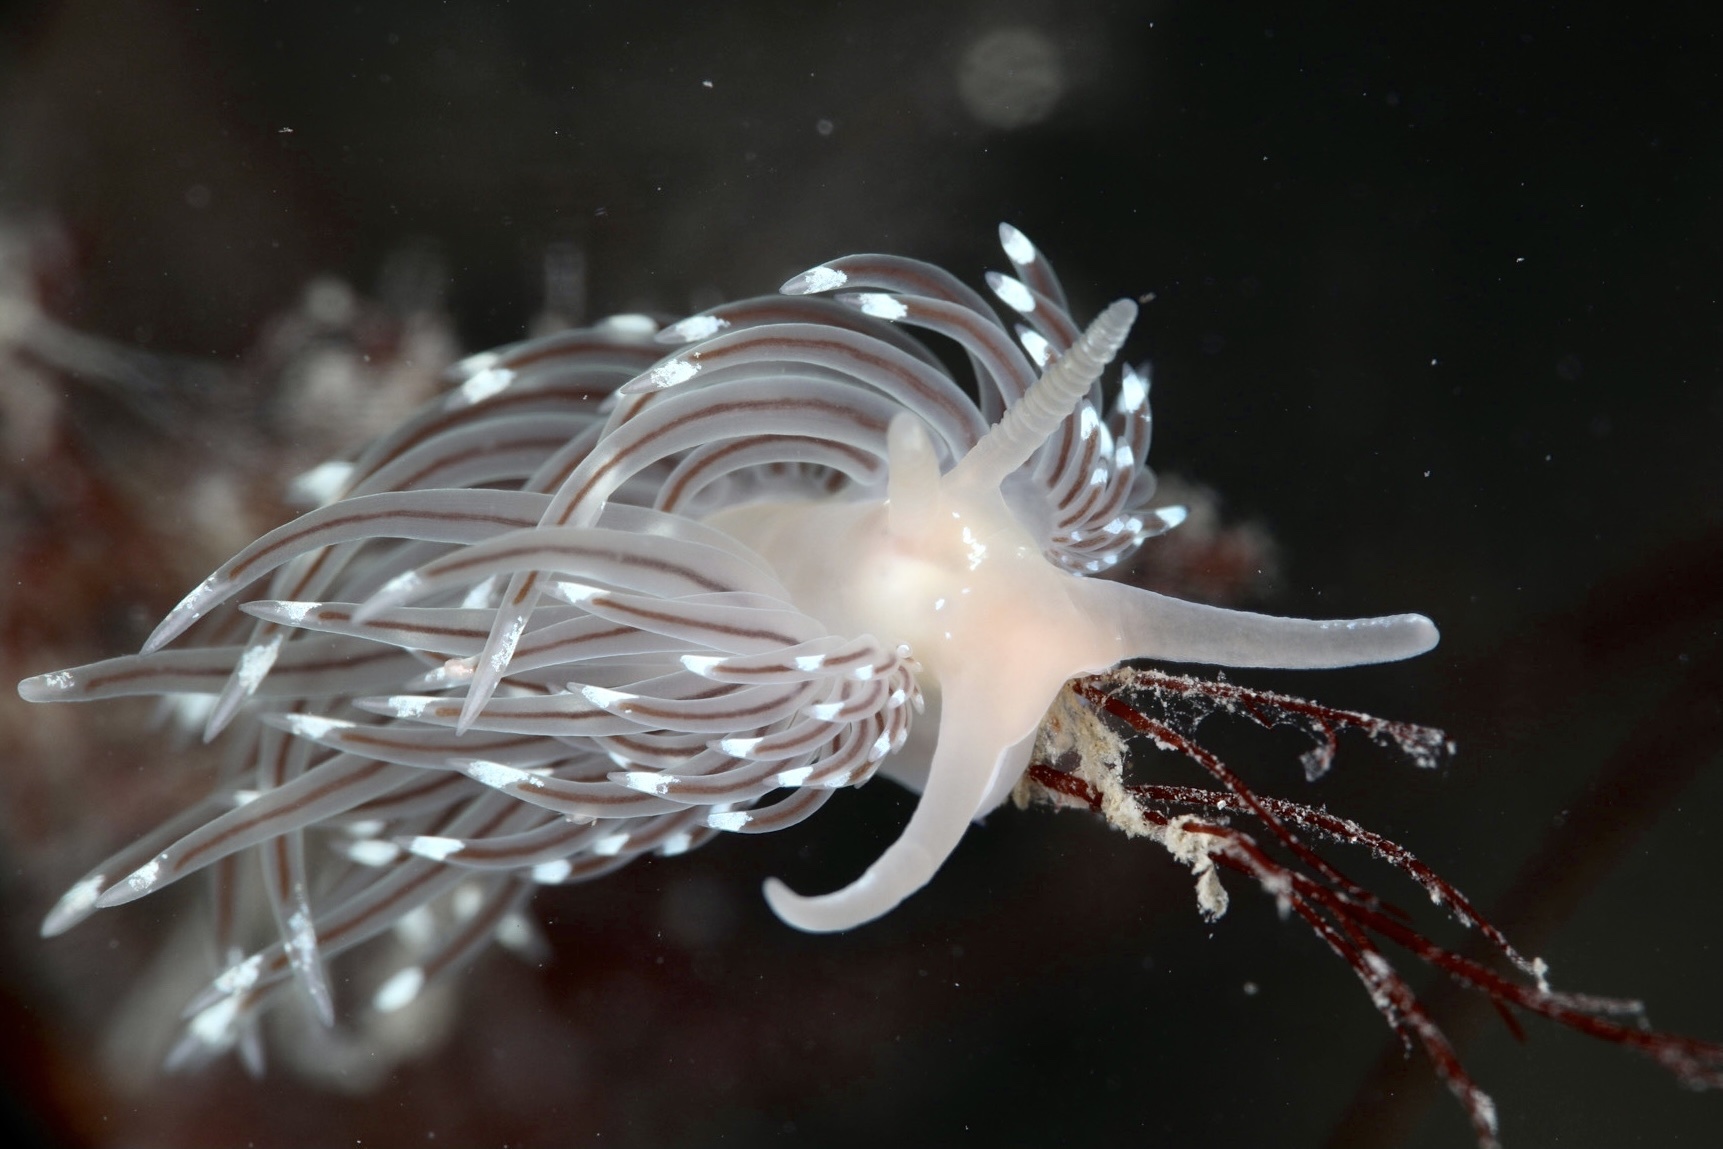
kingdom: Animalia
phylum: Mollusca
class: Gastropoda
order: Nudibranchia
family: Facelinidae
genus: Facelina
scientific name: Facelina bostoniensis
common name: Boston facelina
